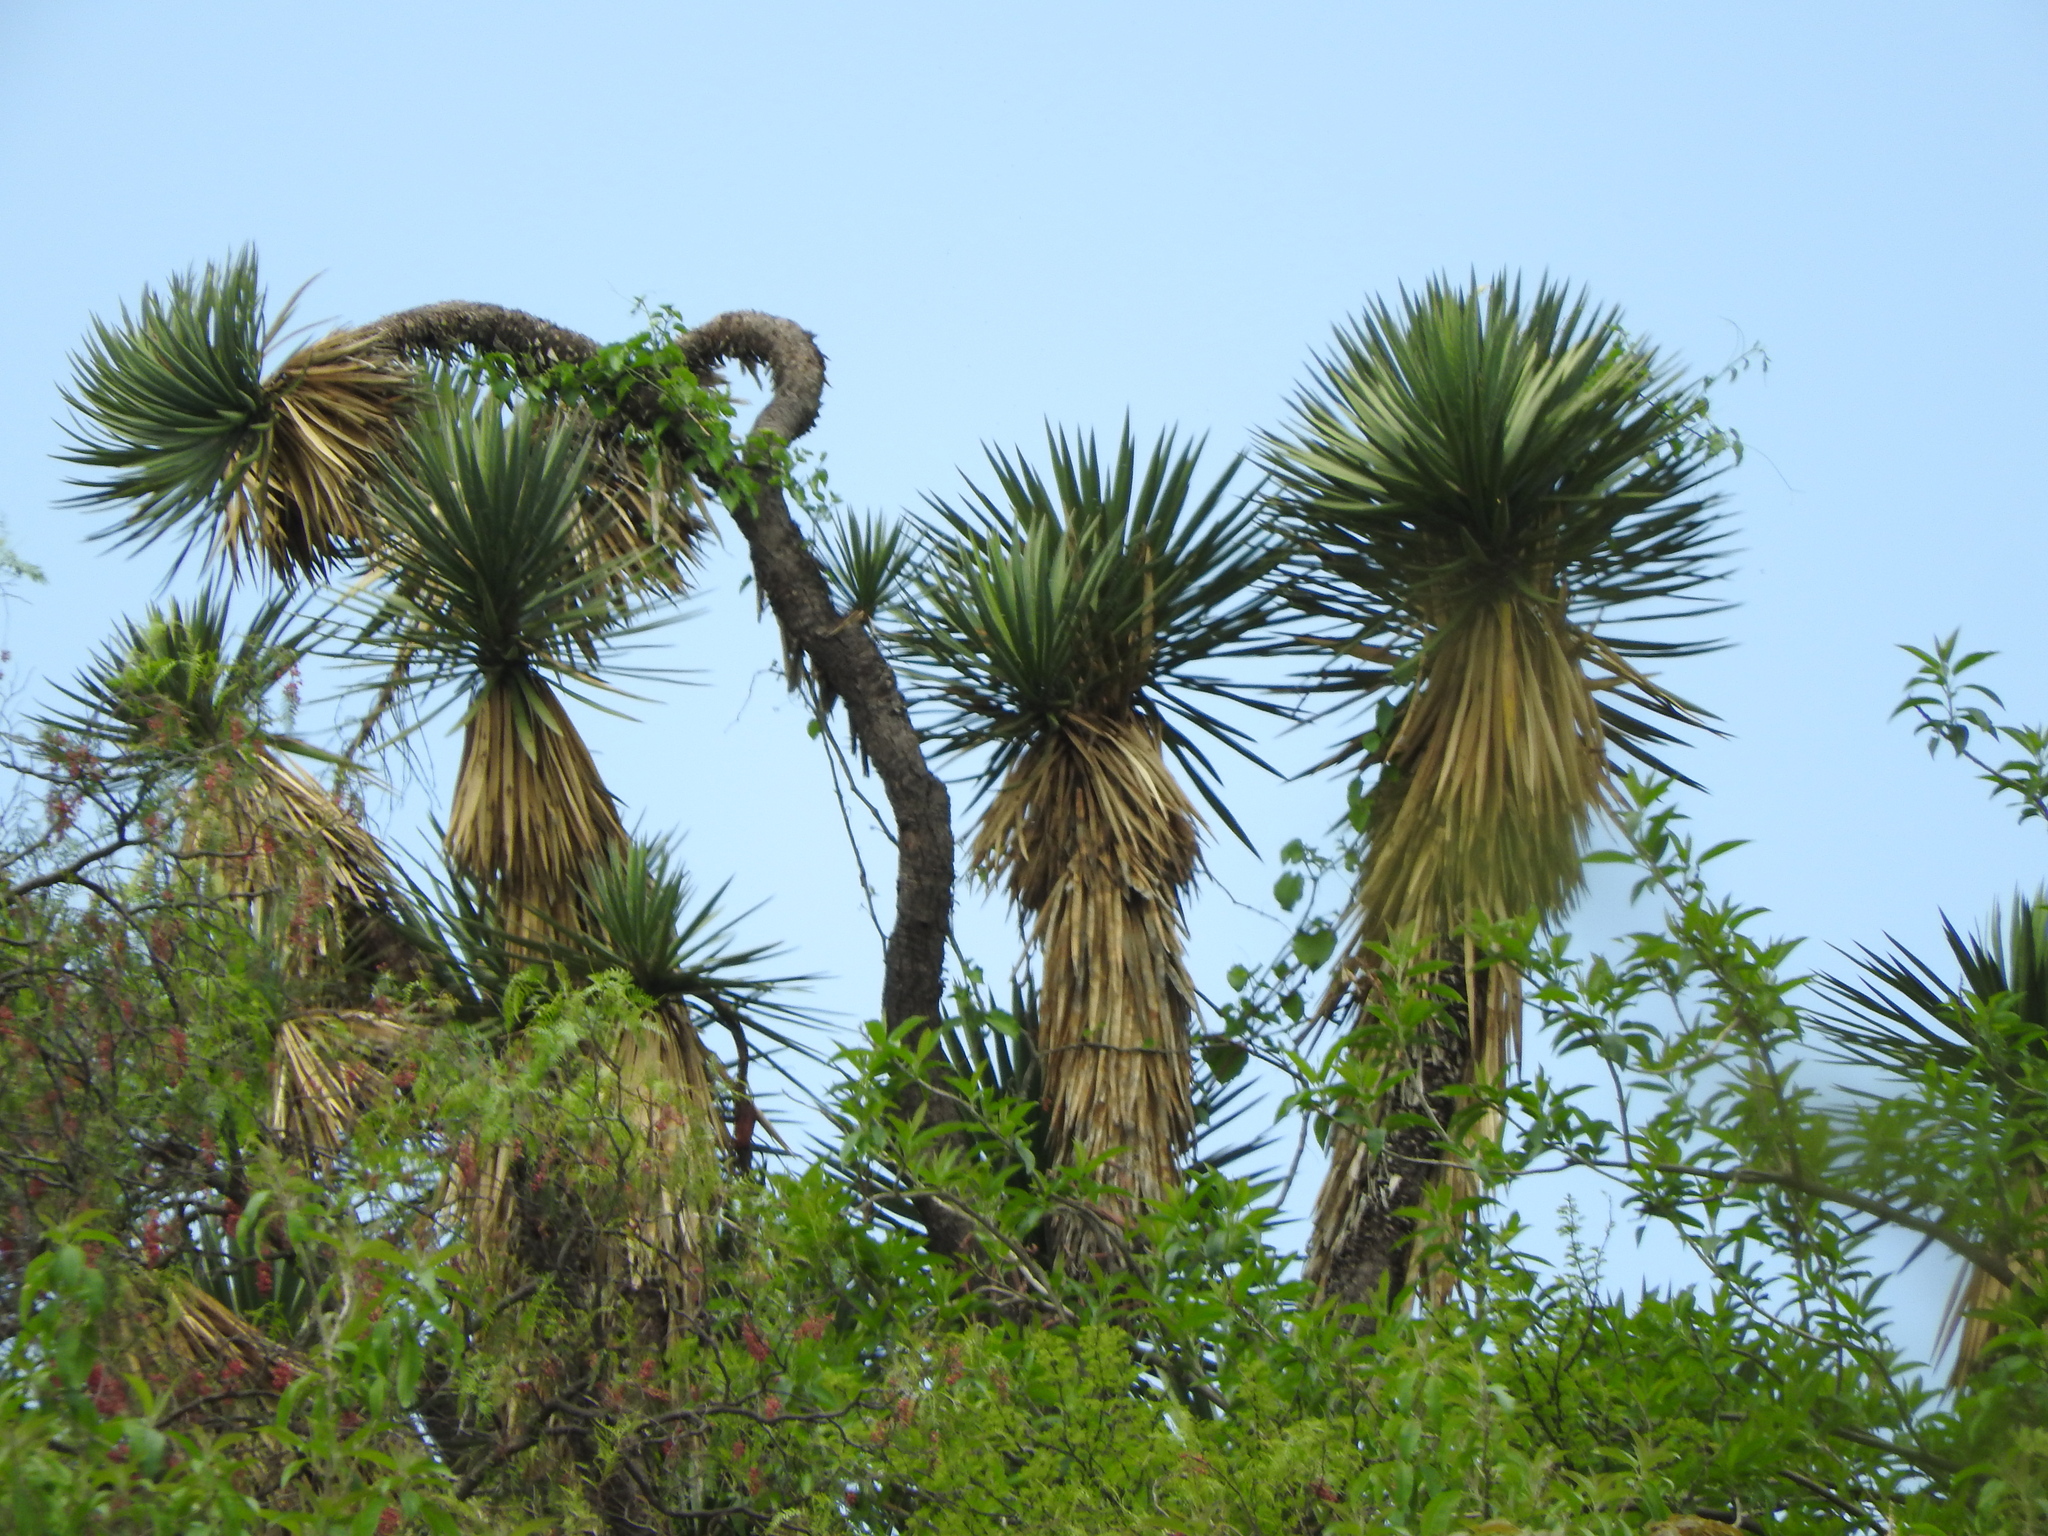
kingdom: Plantae
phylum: Tracheophyta
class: Liliopsida
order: Asparagales
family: Asparagaceae
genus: Yucca
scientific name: Yucca filifera
